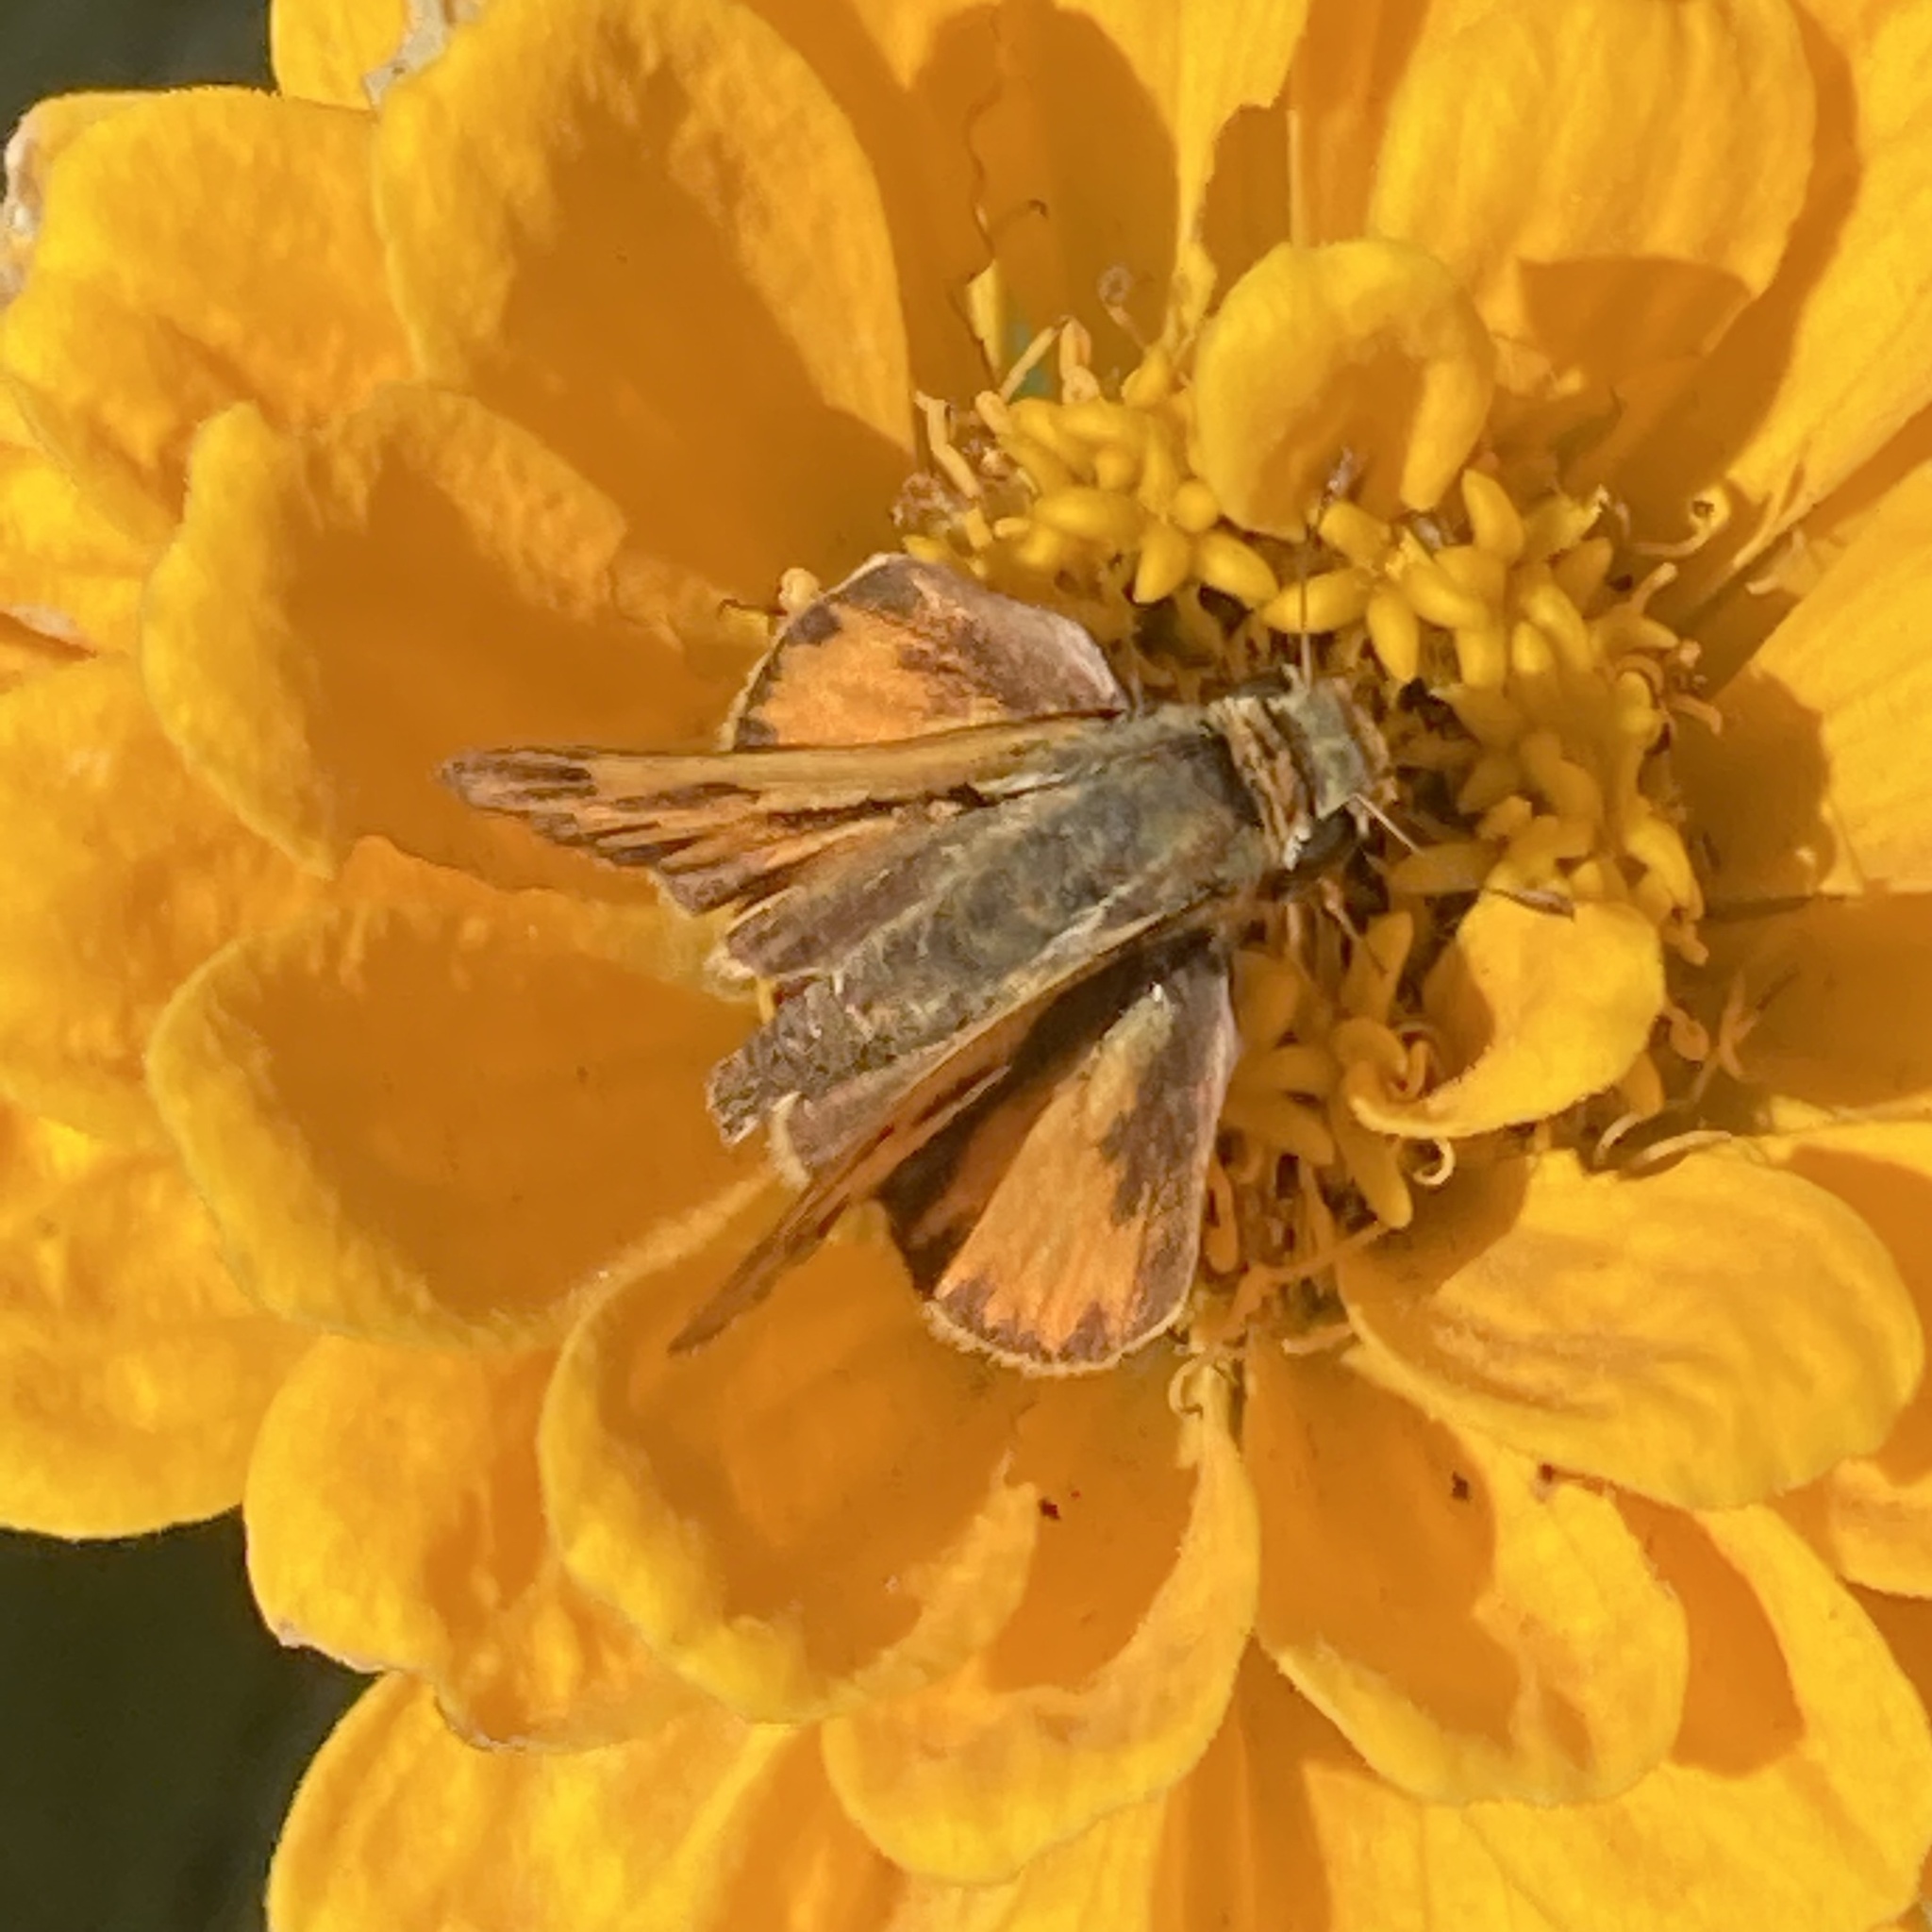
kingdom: Animalia
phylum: Arthropoda
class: Insecta
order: Lepidoptera
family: Hesperiidae
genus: Hylephila
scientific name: Hylephila phyleus
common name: Fiery skipper
